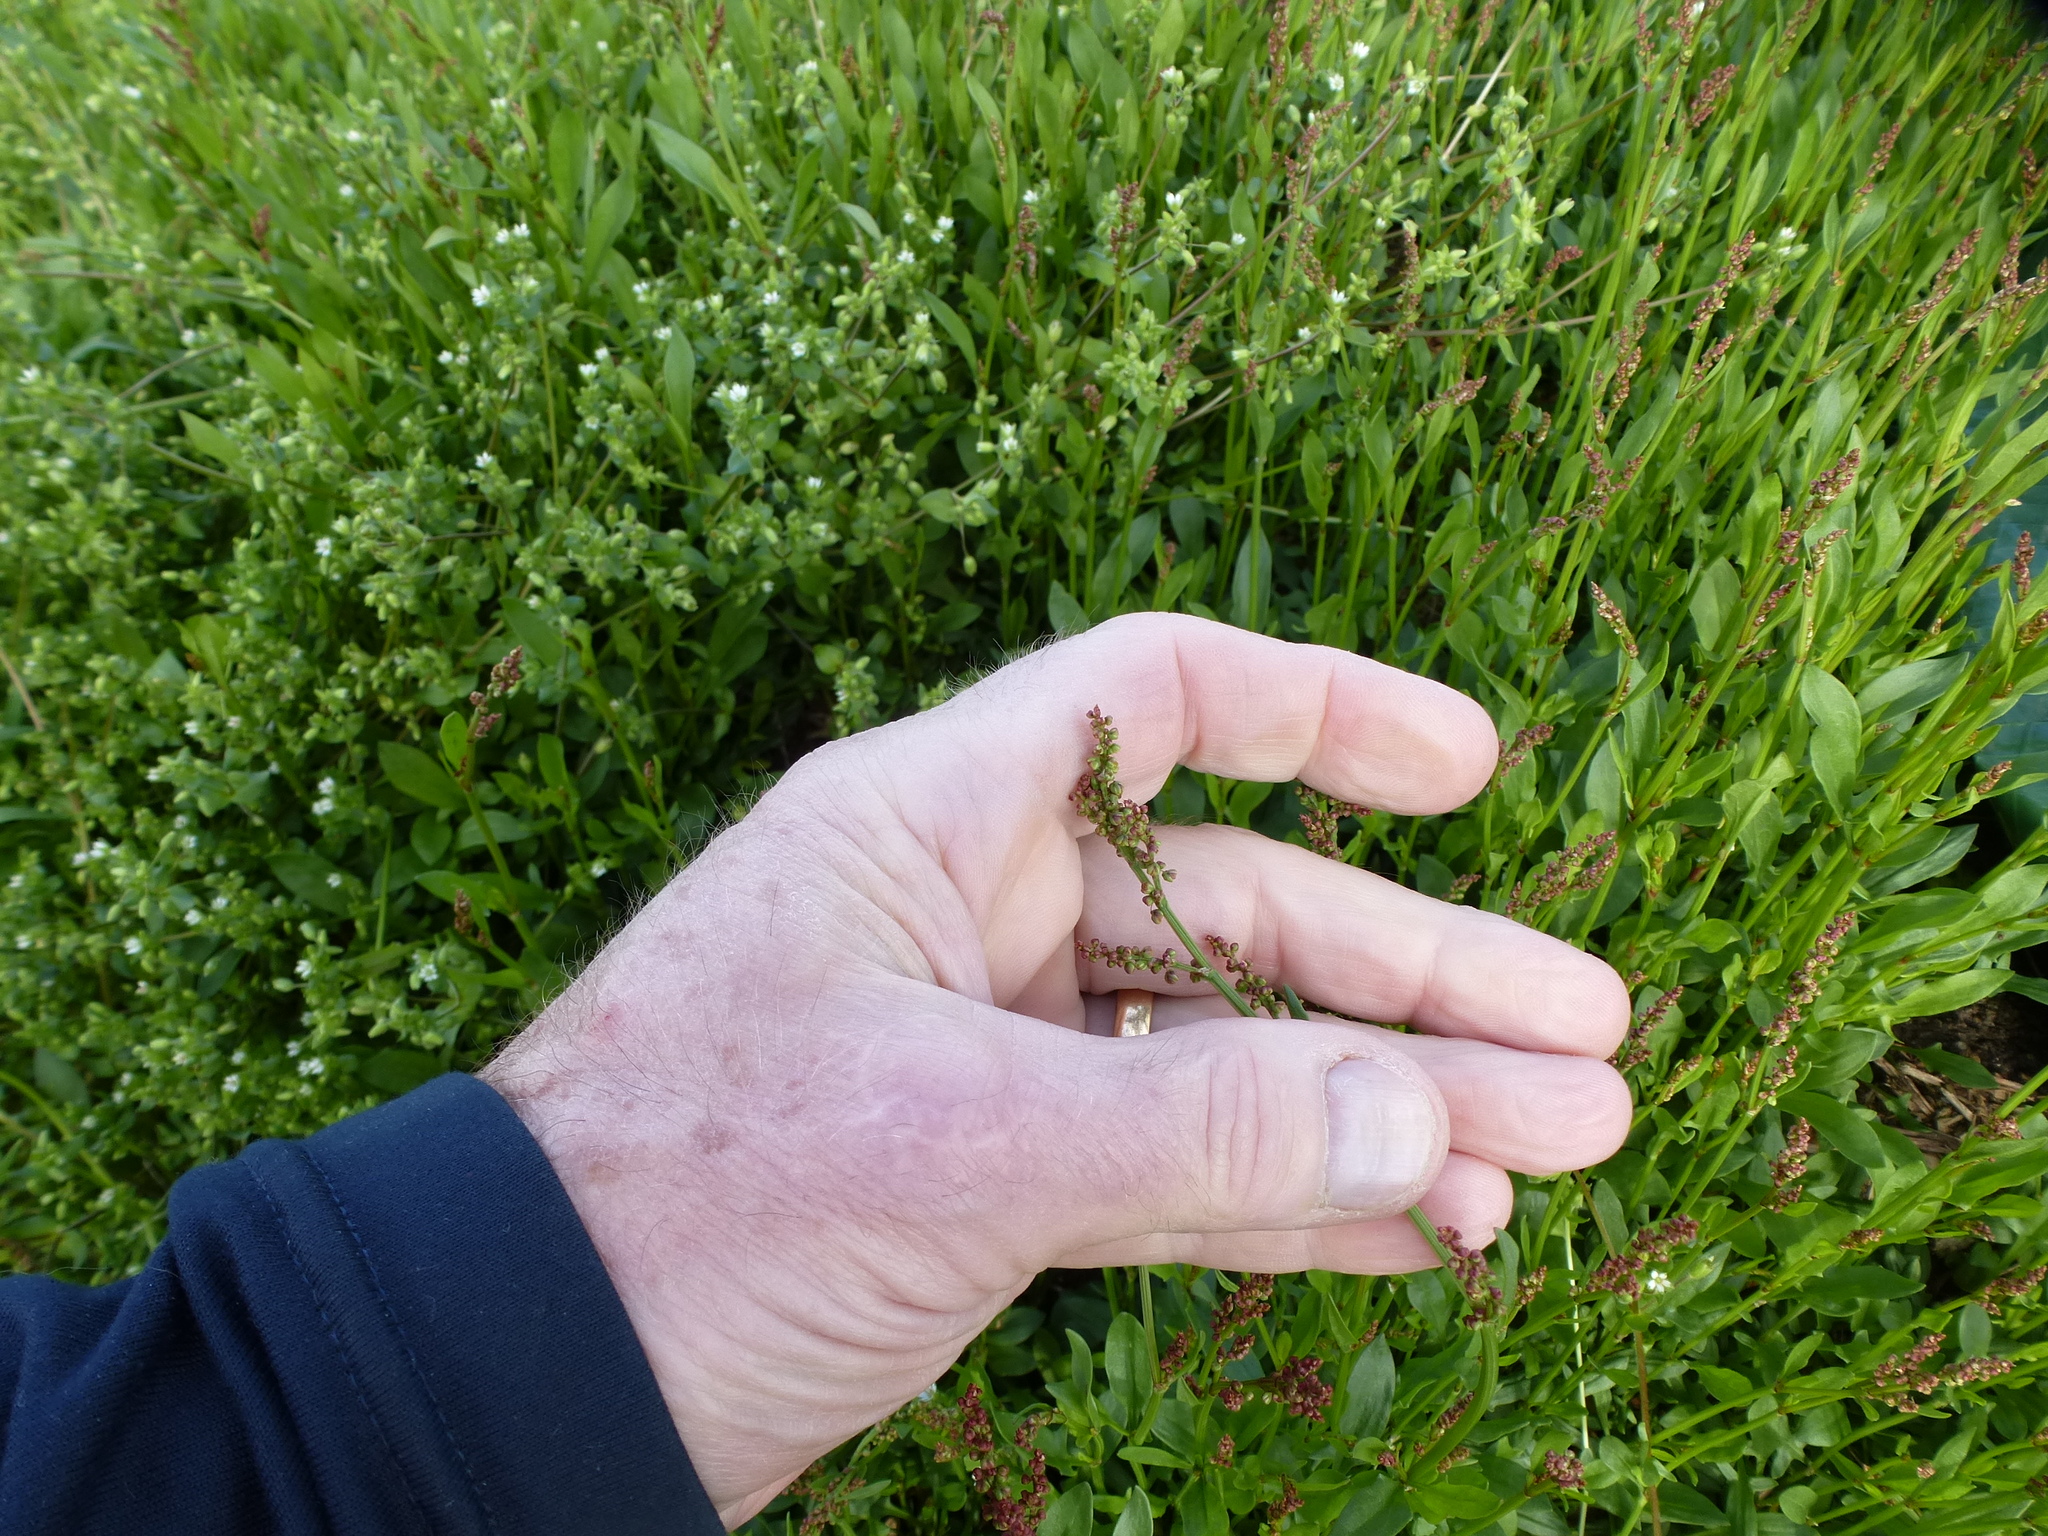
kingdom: Plantae
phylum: Tracheophyta
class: Magnoliopsida
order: Caryophyllales
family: Polygonaceae
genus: Rumex
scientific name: Rumex acetosella
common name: Common sheep sorrel
